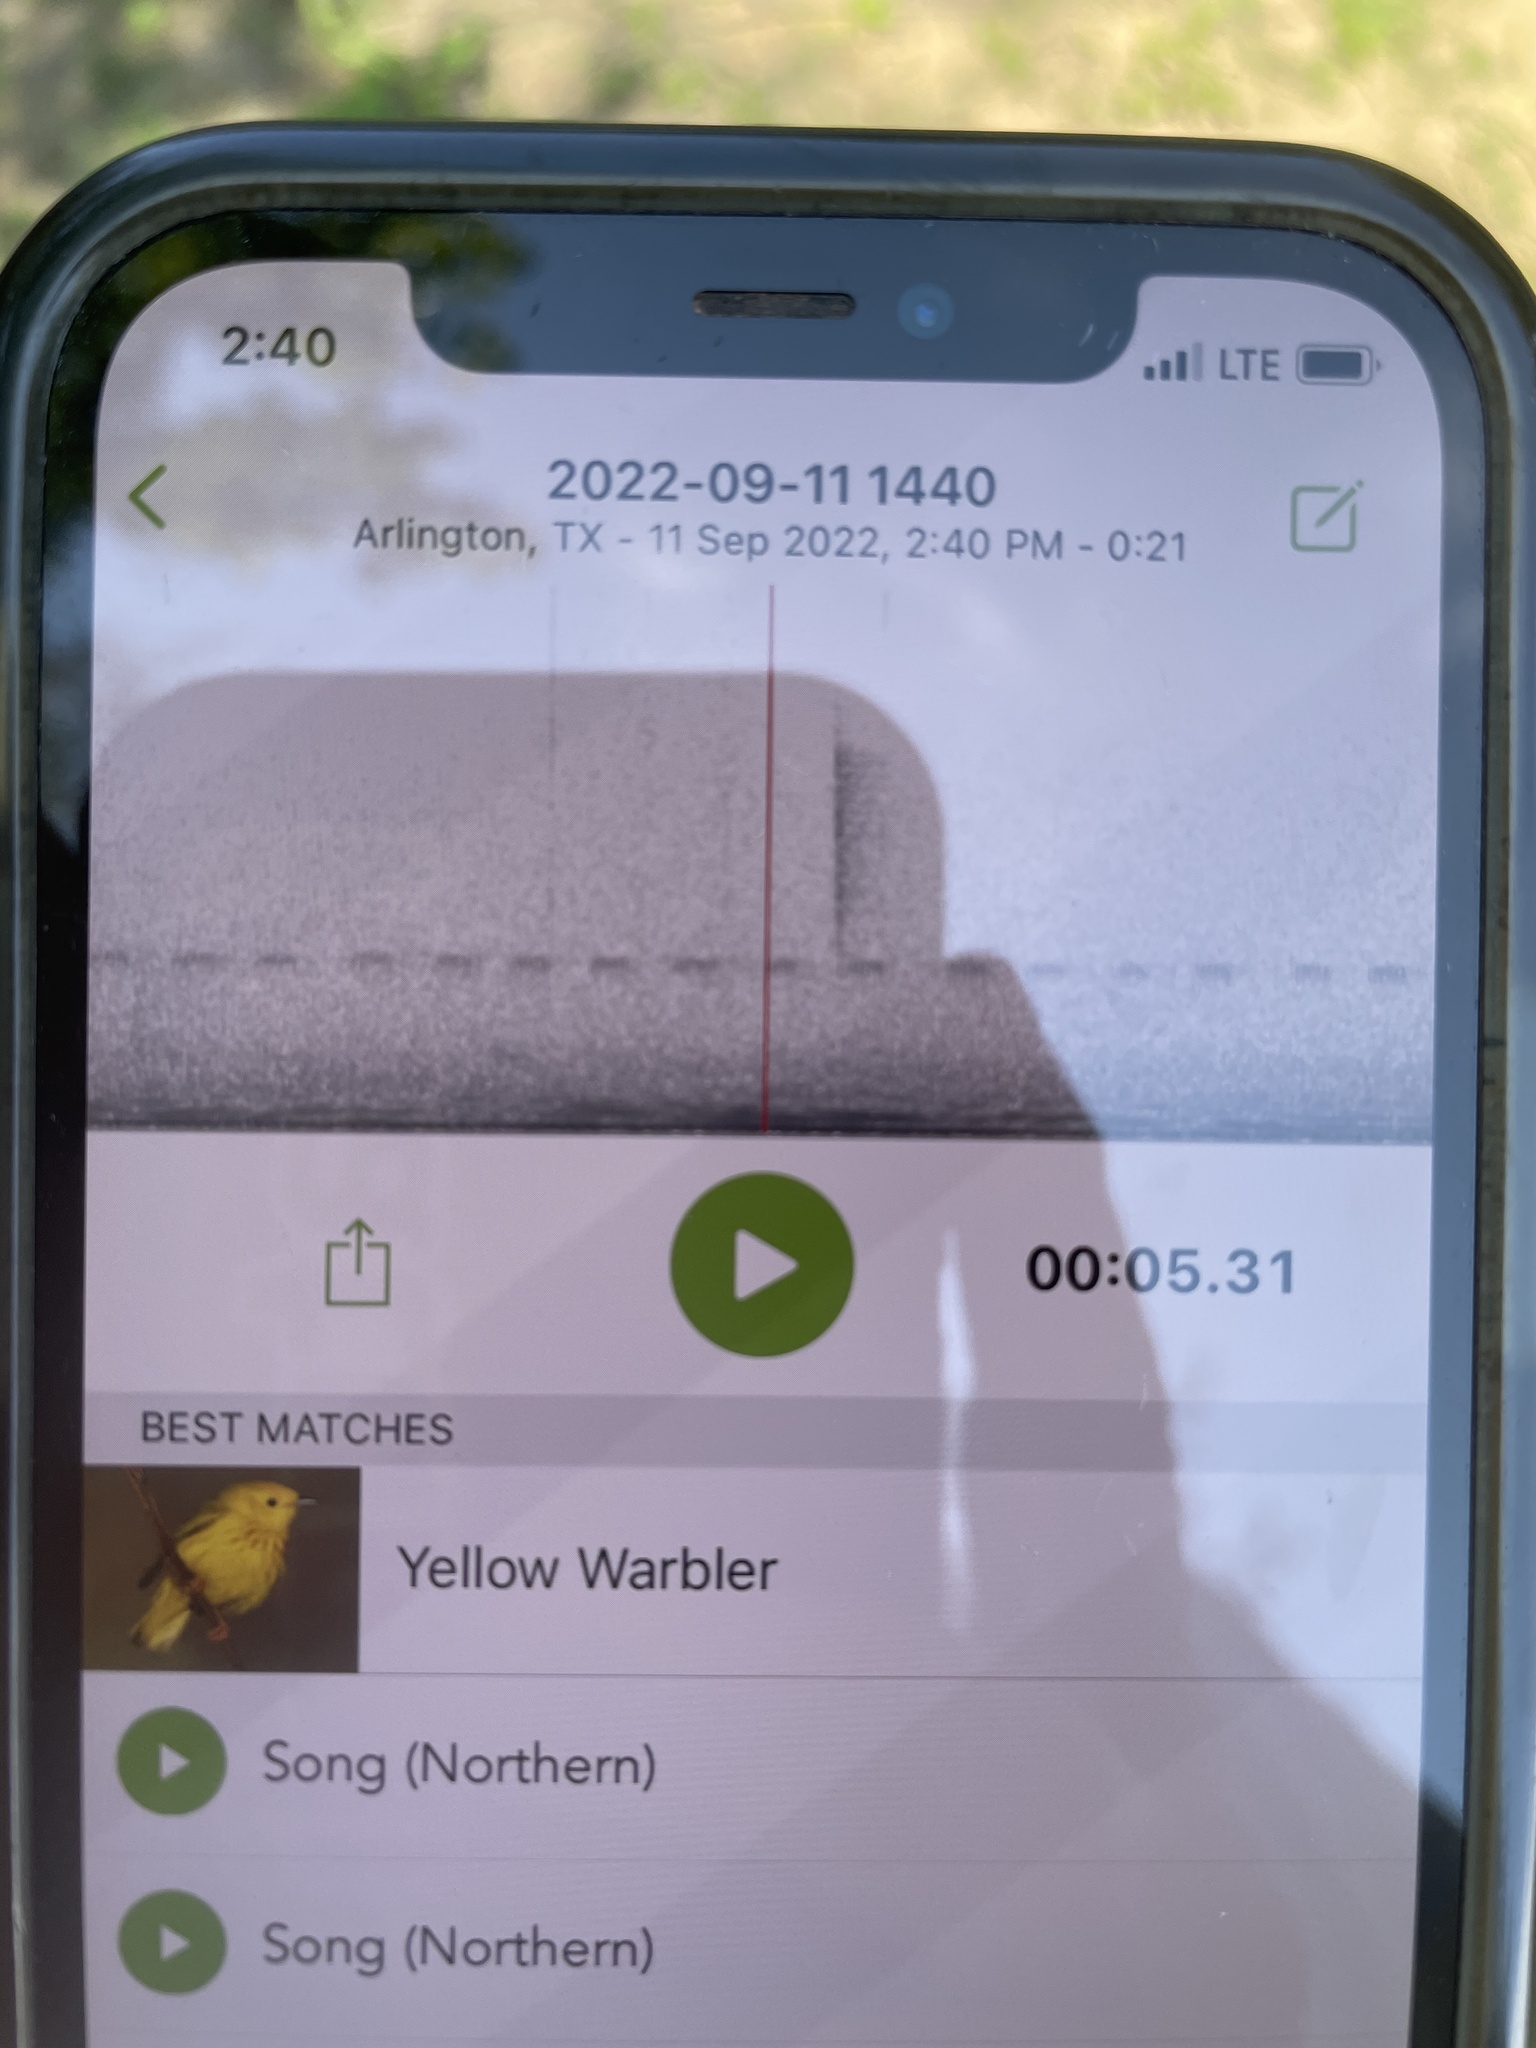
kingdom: Animalia
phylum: Chordata
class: Aves
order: Passeriformes
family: Parulidae
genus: Setophaga
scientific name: Setophaga petechia
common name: Yellow warbler
